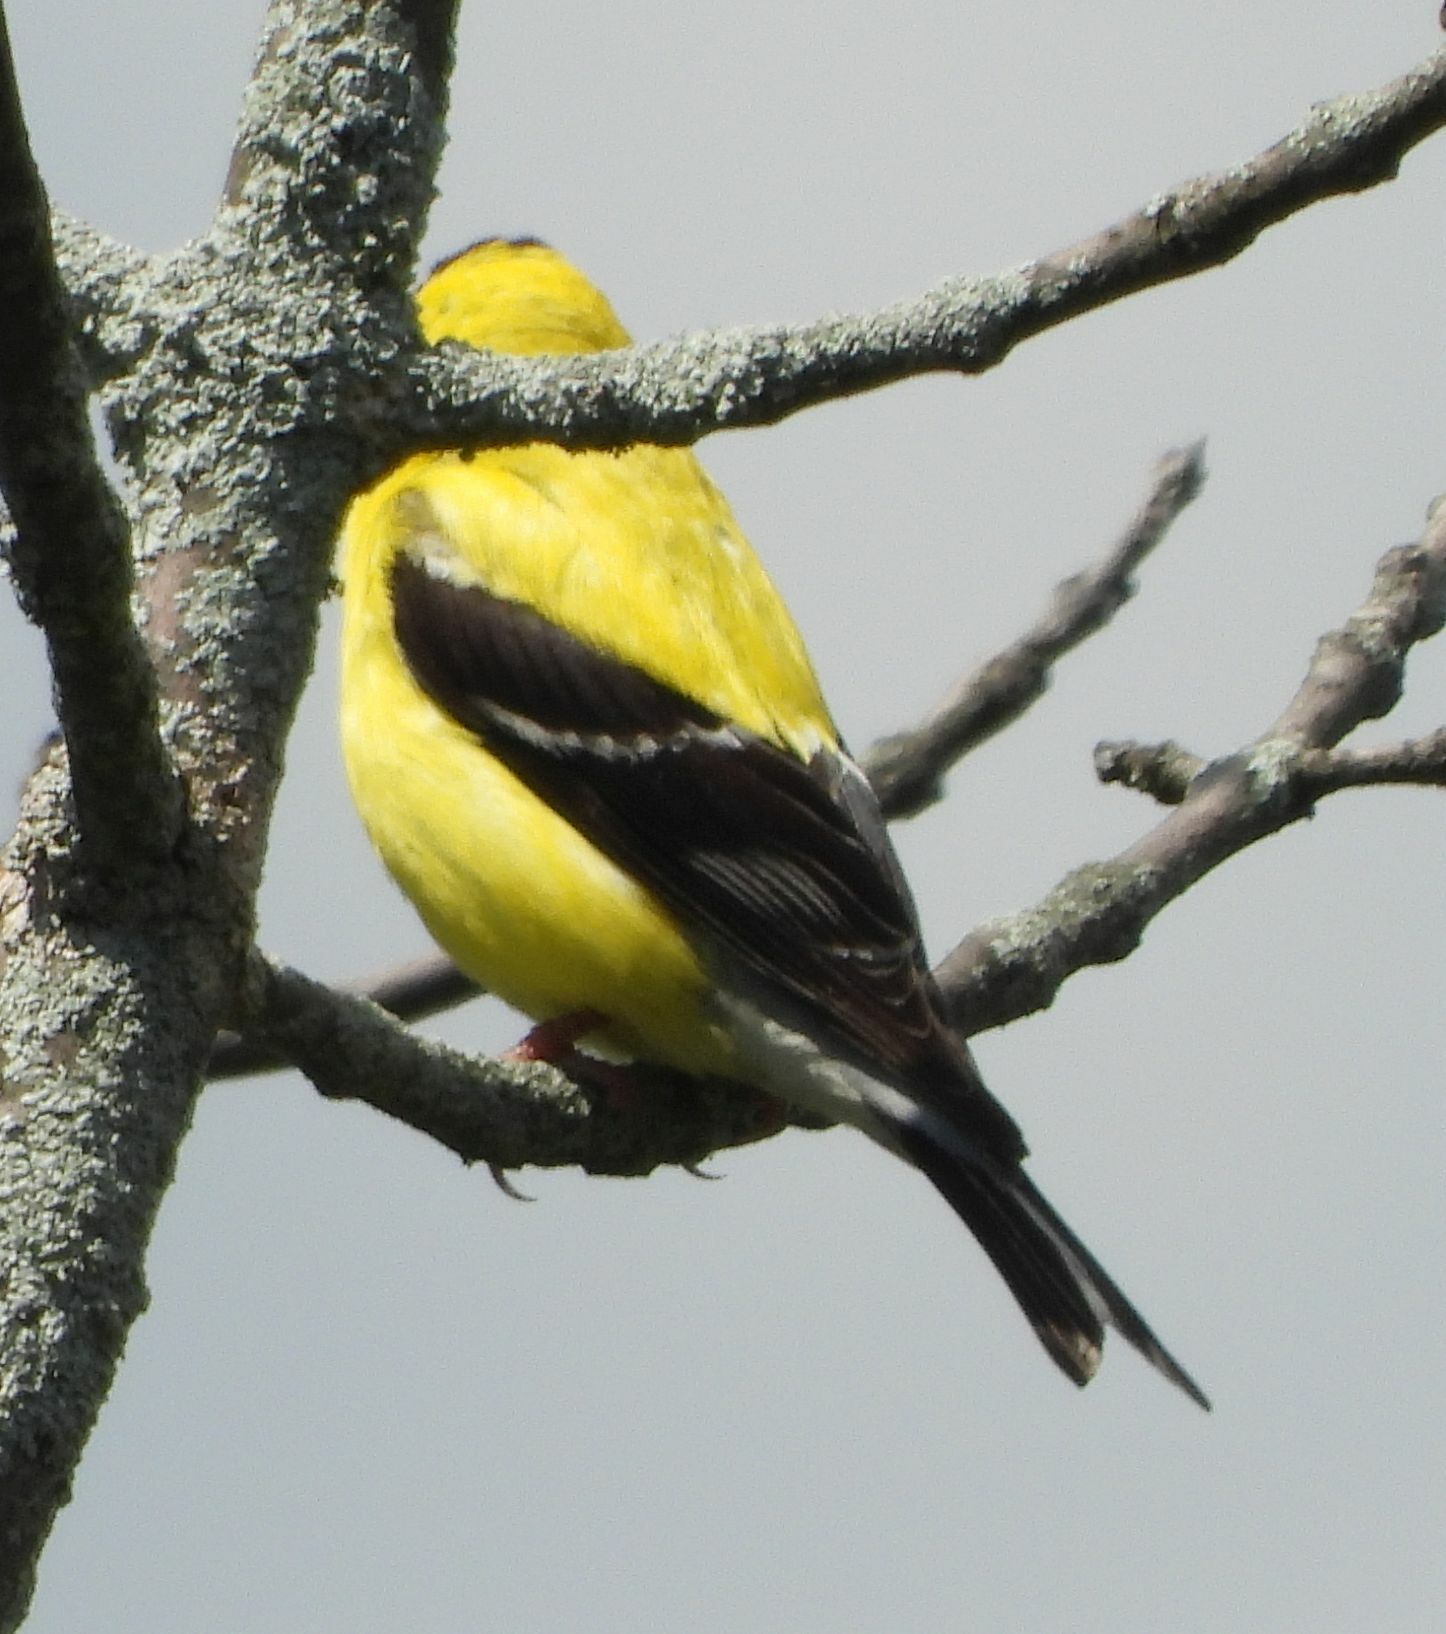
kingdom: Animalia
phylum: Chordata
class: Aves
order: Passeriformes
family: Fringillidae
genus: Spinus
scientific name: Spinus tristis
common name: American goldfinch
